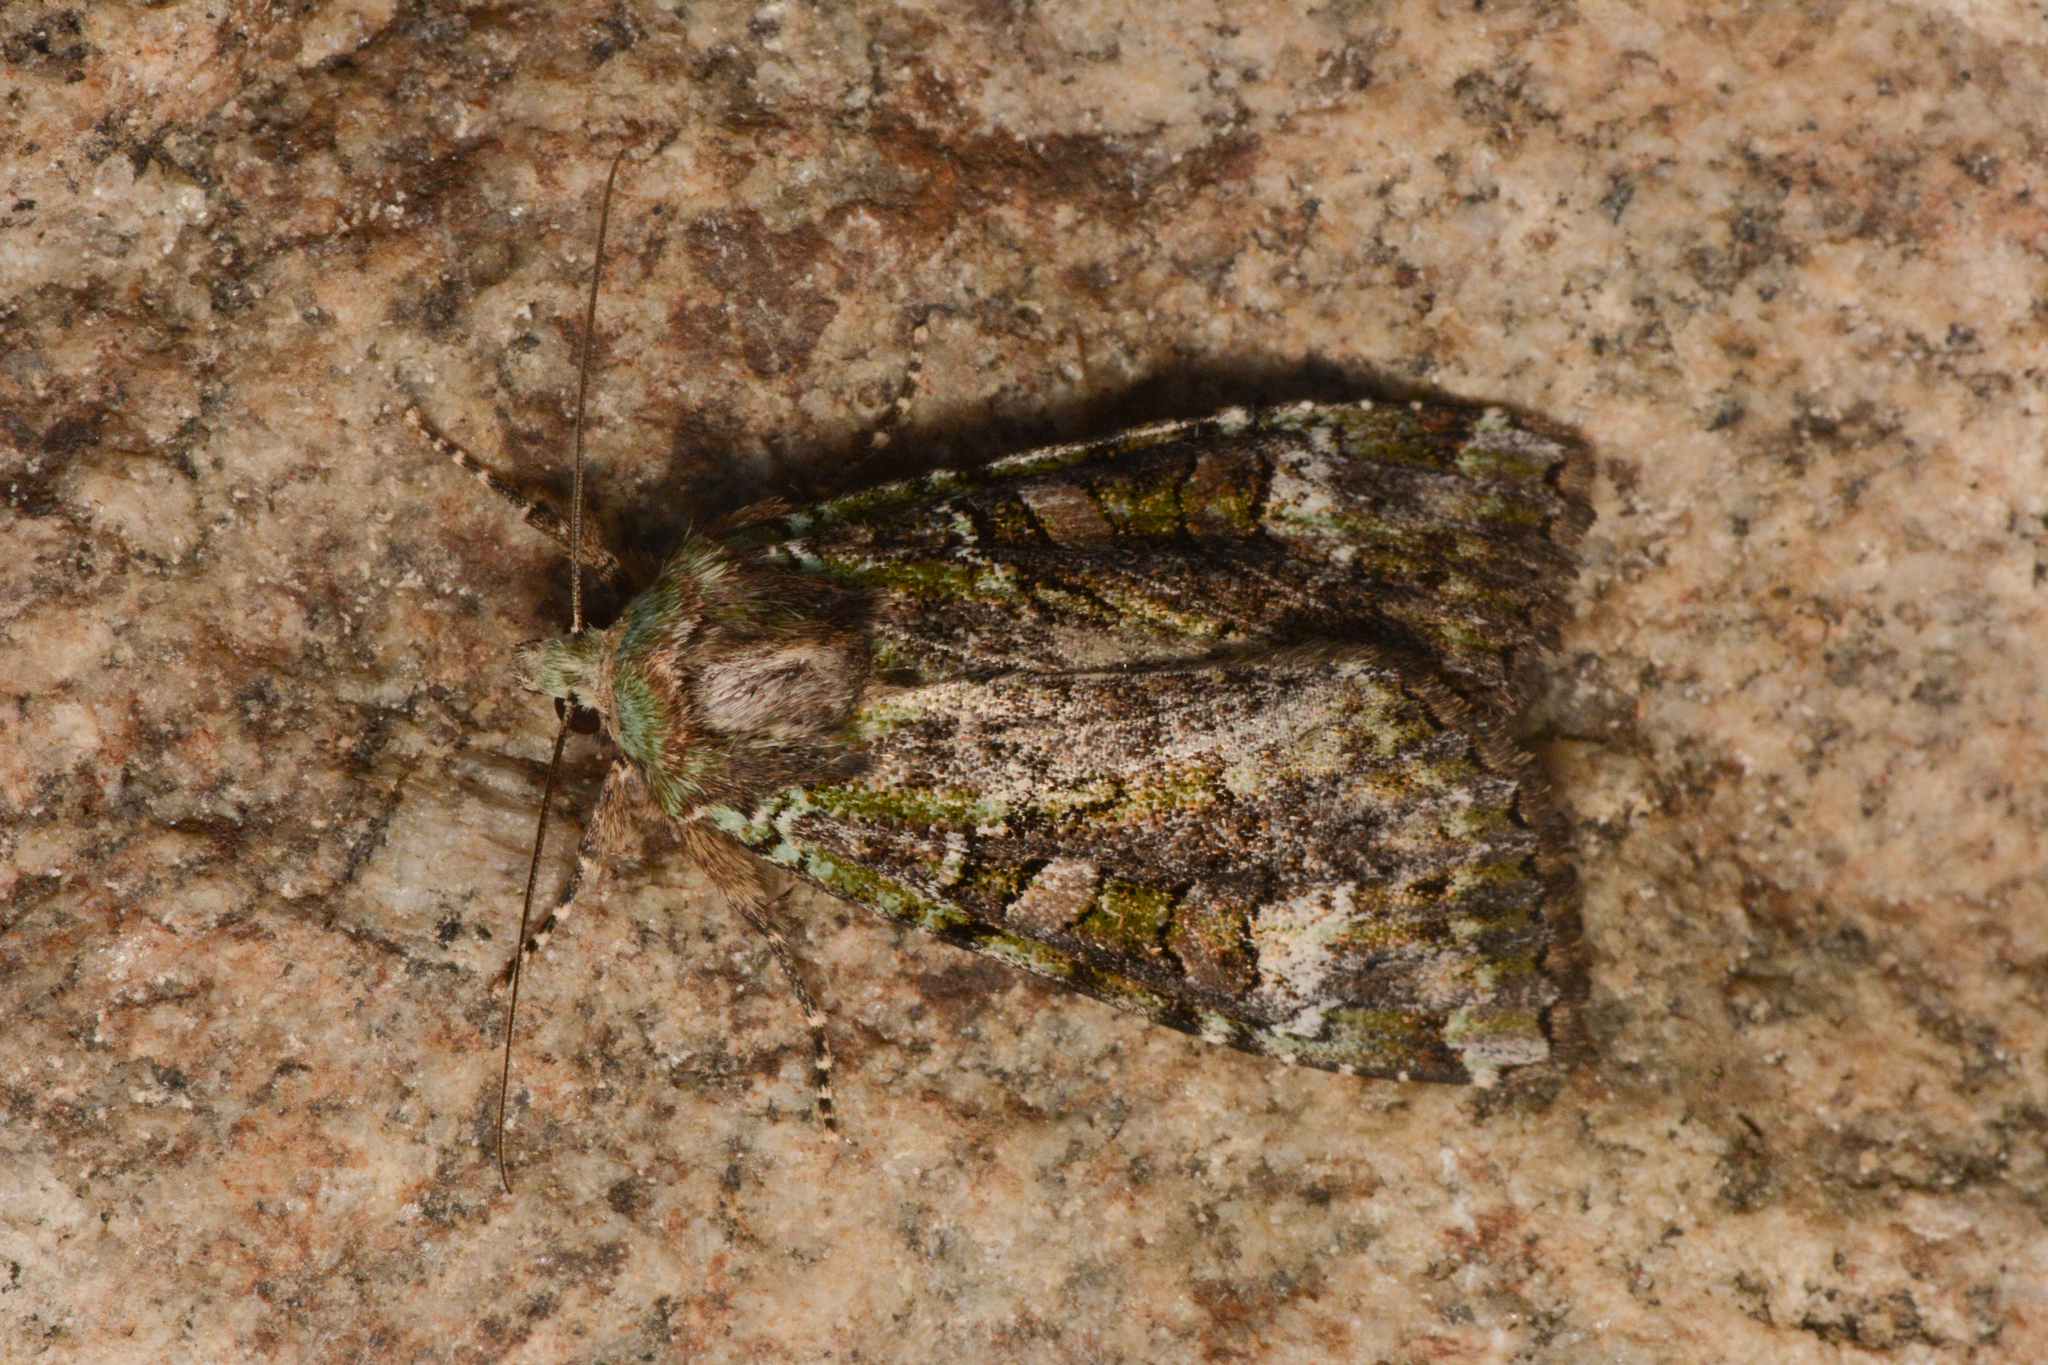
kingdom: Animalia
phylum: Arthropoda
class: Insecta
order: Lepidoptera
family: Noctuidae
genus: Anaplectoides
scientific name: Anaplectoides prasina
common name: Green arches
